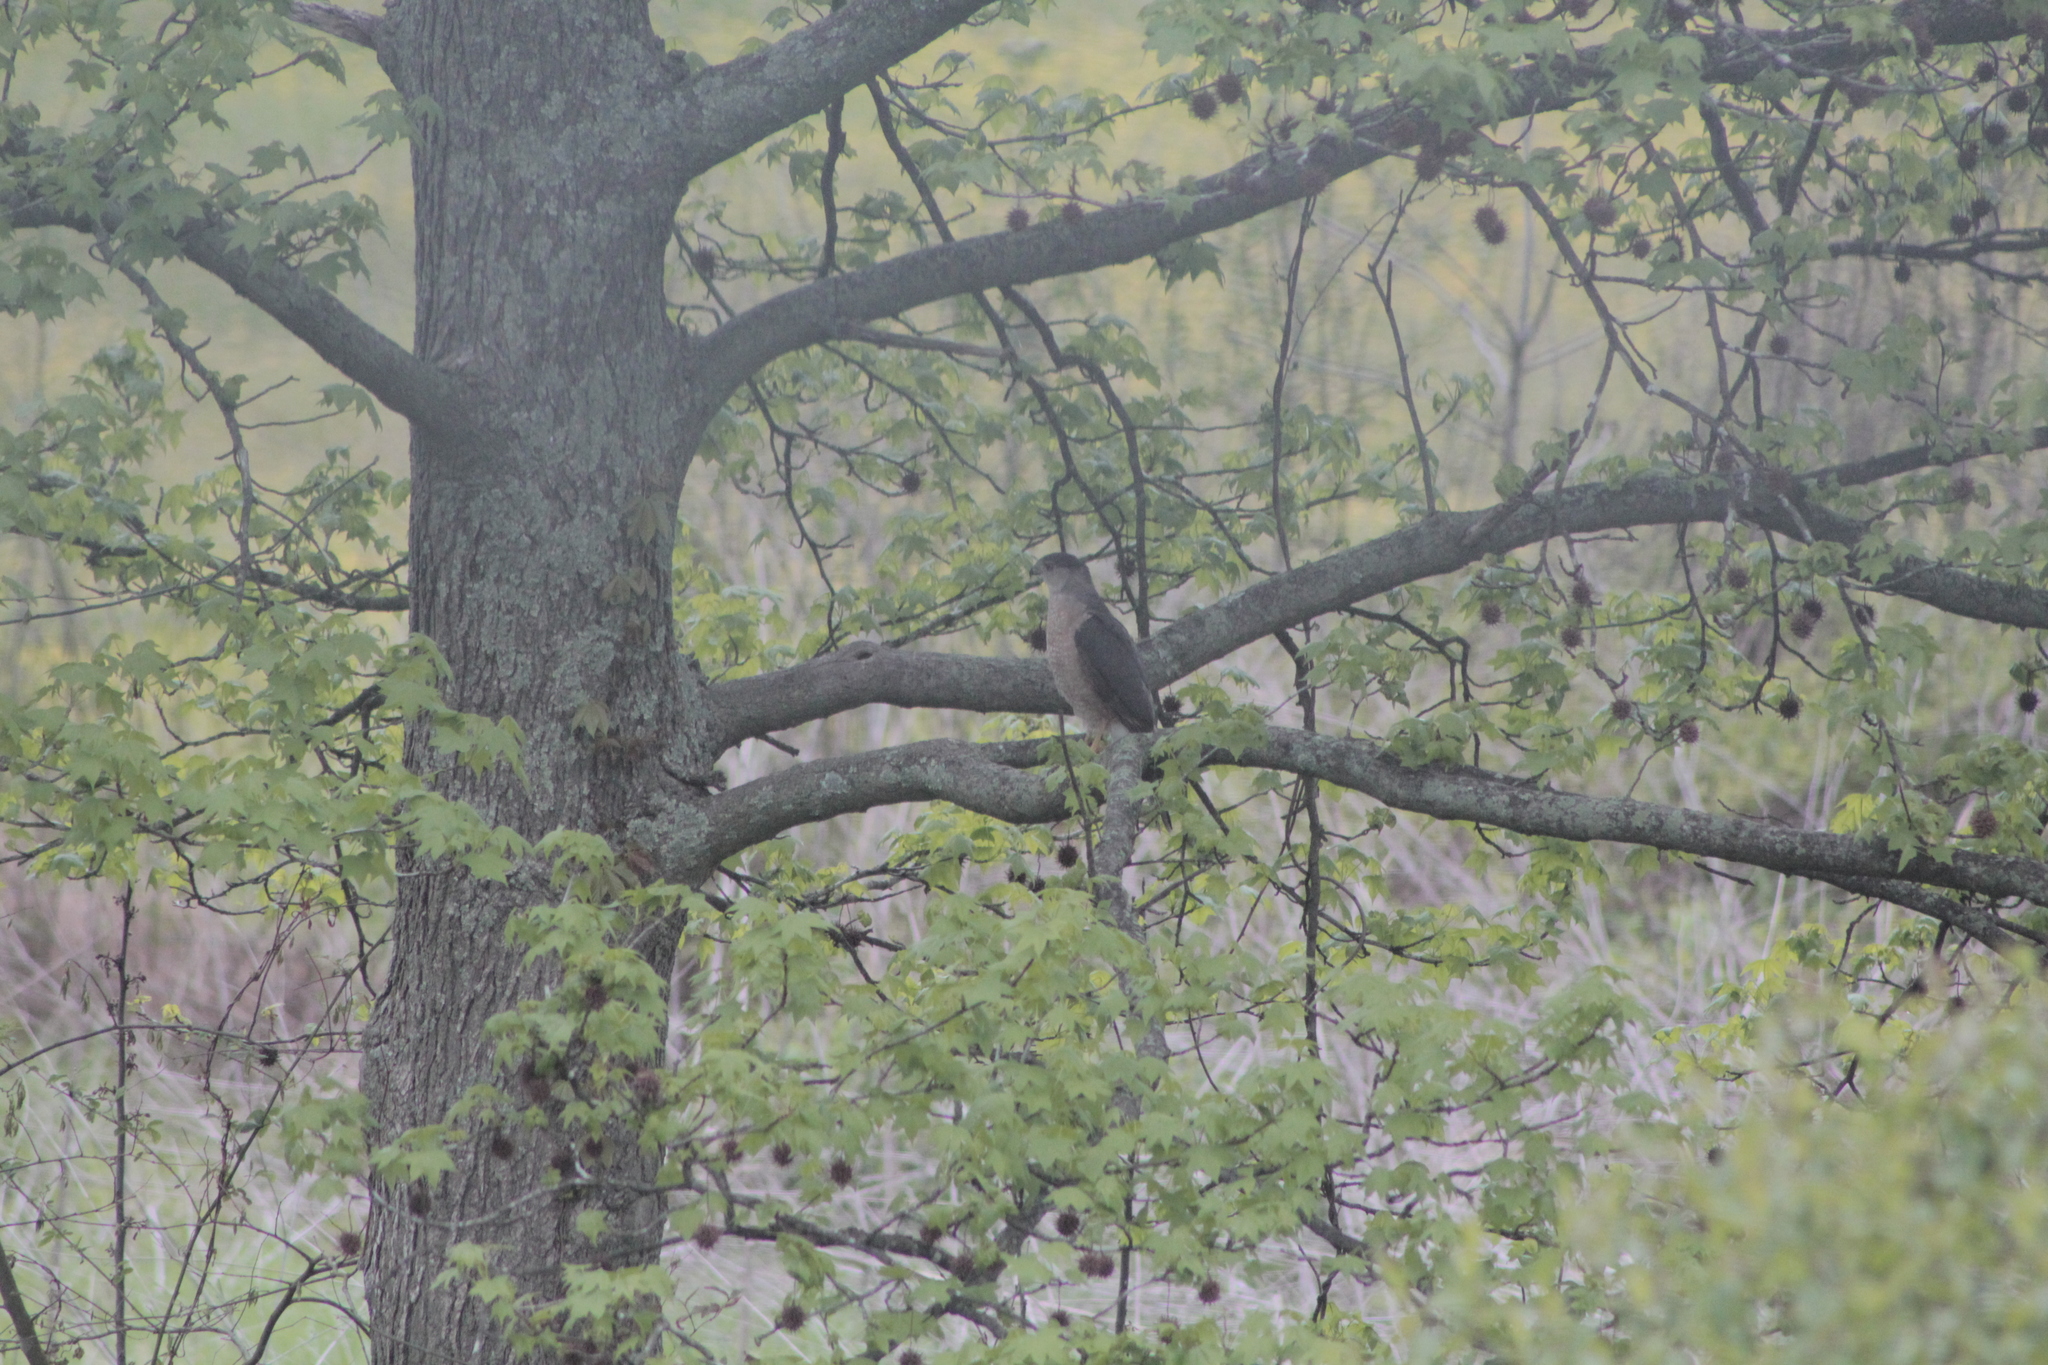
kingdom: Animalia
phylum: Chordata
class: Aves
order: Accipitriformes
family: Accipitridae
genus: Accipiter
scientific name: Accipiter cooperii
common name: Cooper's hawk
